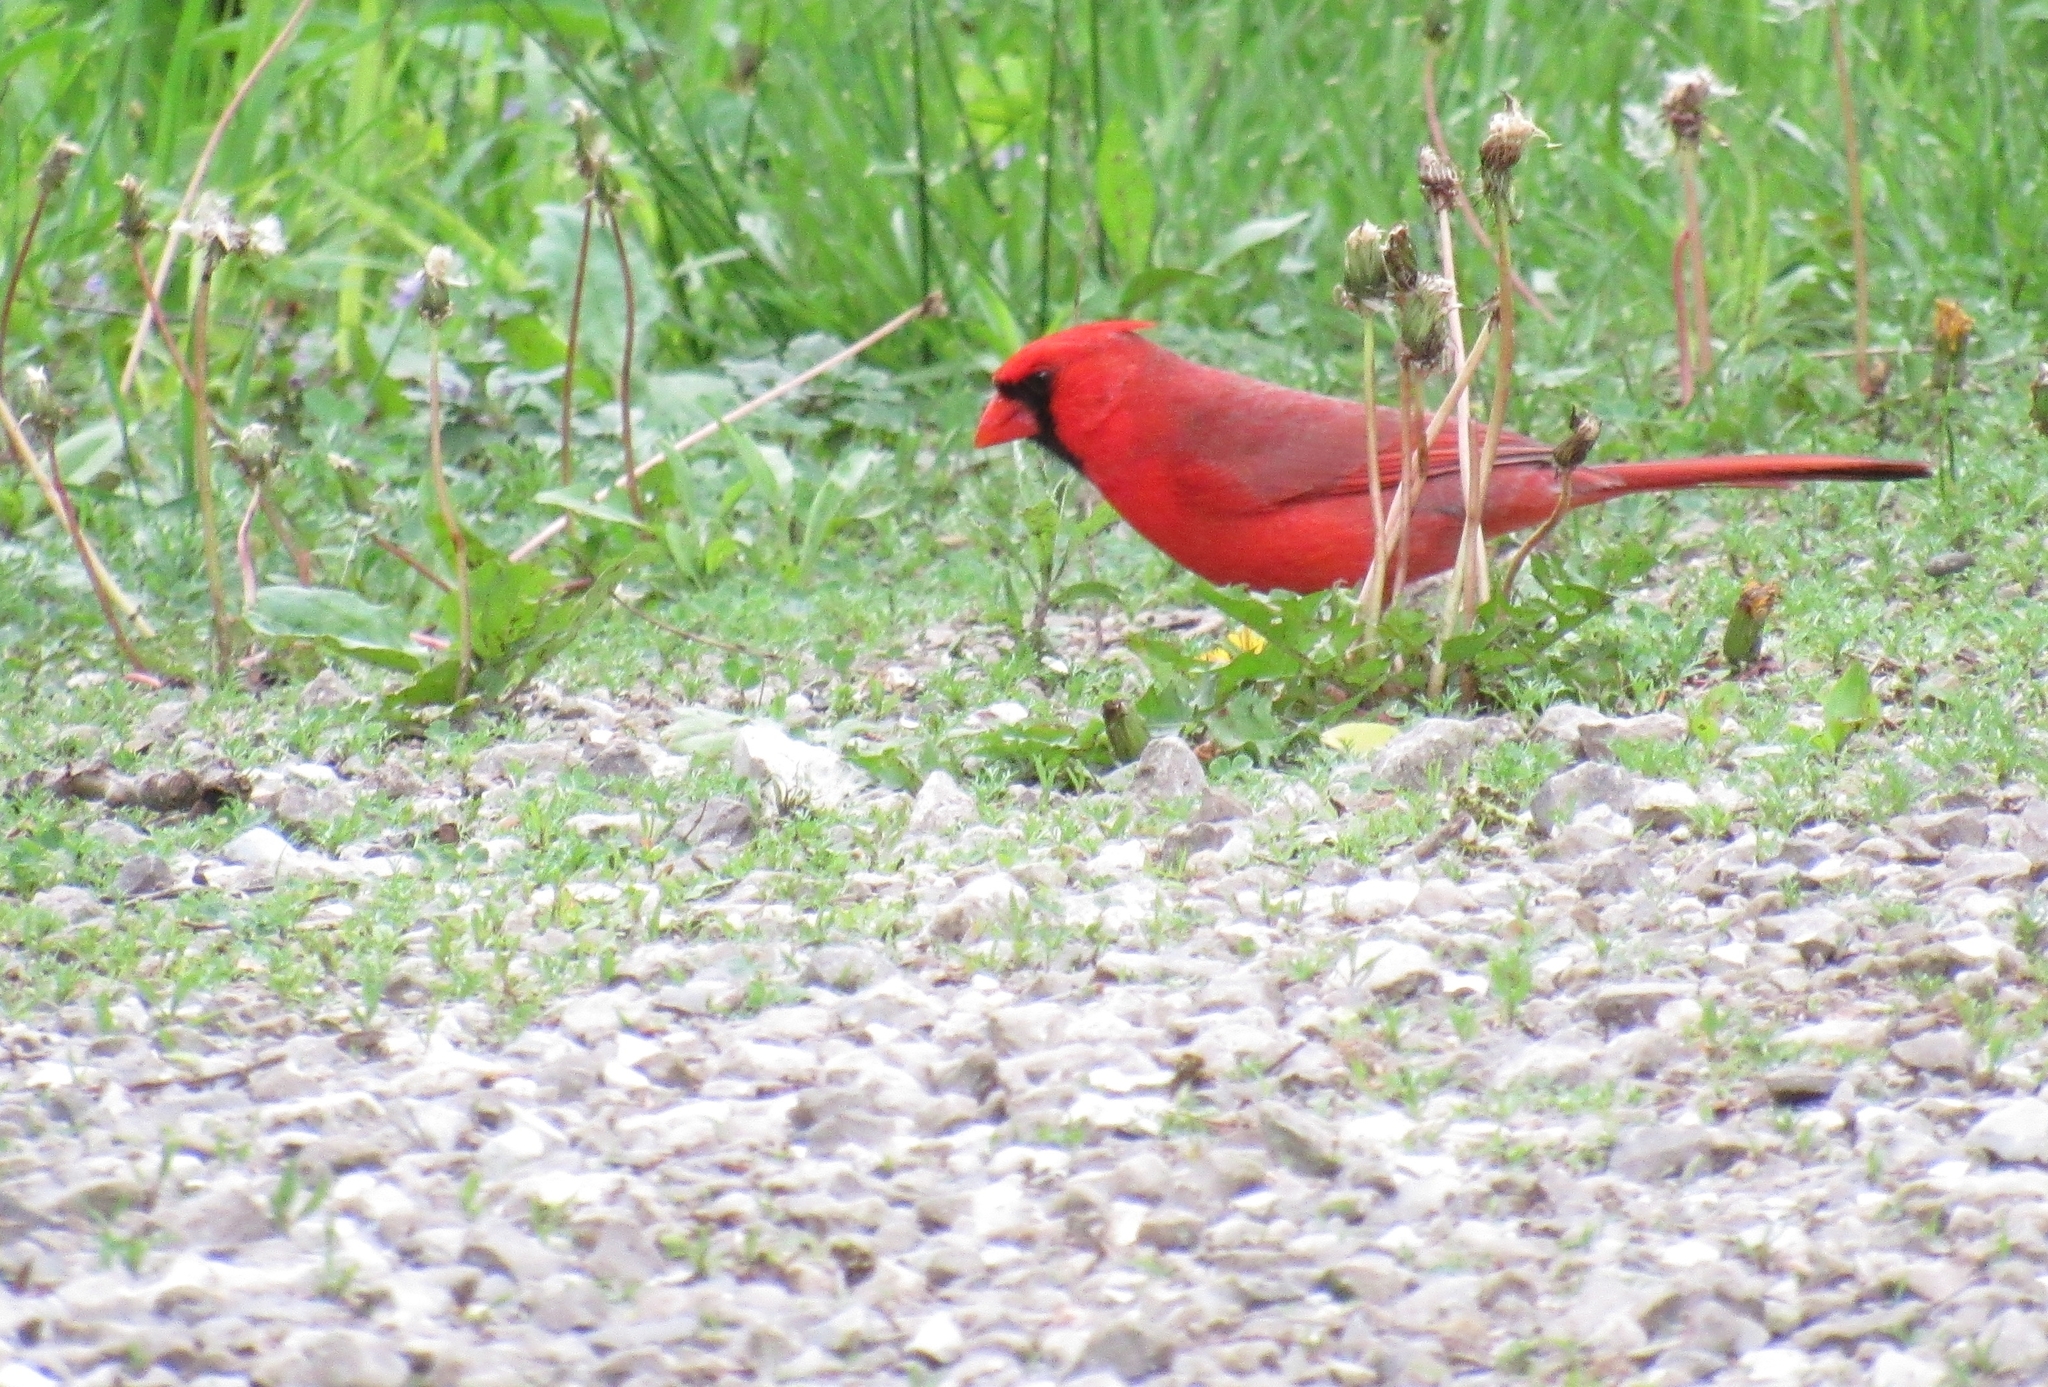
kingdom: Animalia
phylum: Chordata
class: Aves
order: Passeriformes
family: Cardinalidae
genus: Cardinalis
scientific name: Cardinalis cardinalis
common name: Northern cardinal
